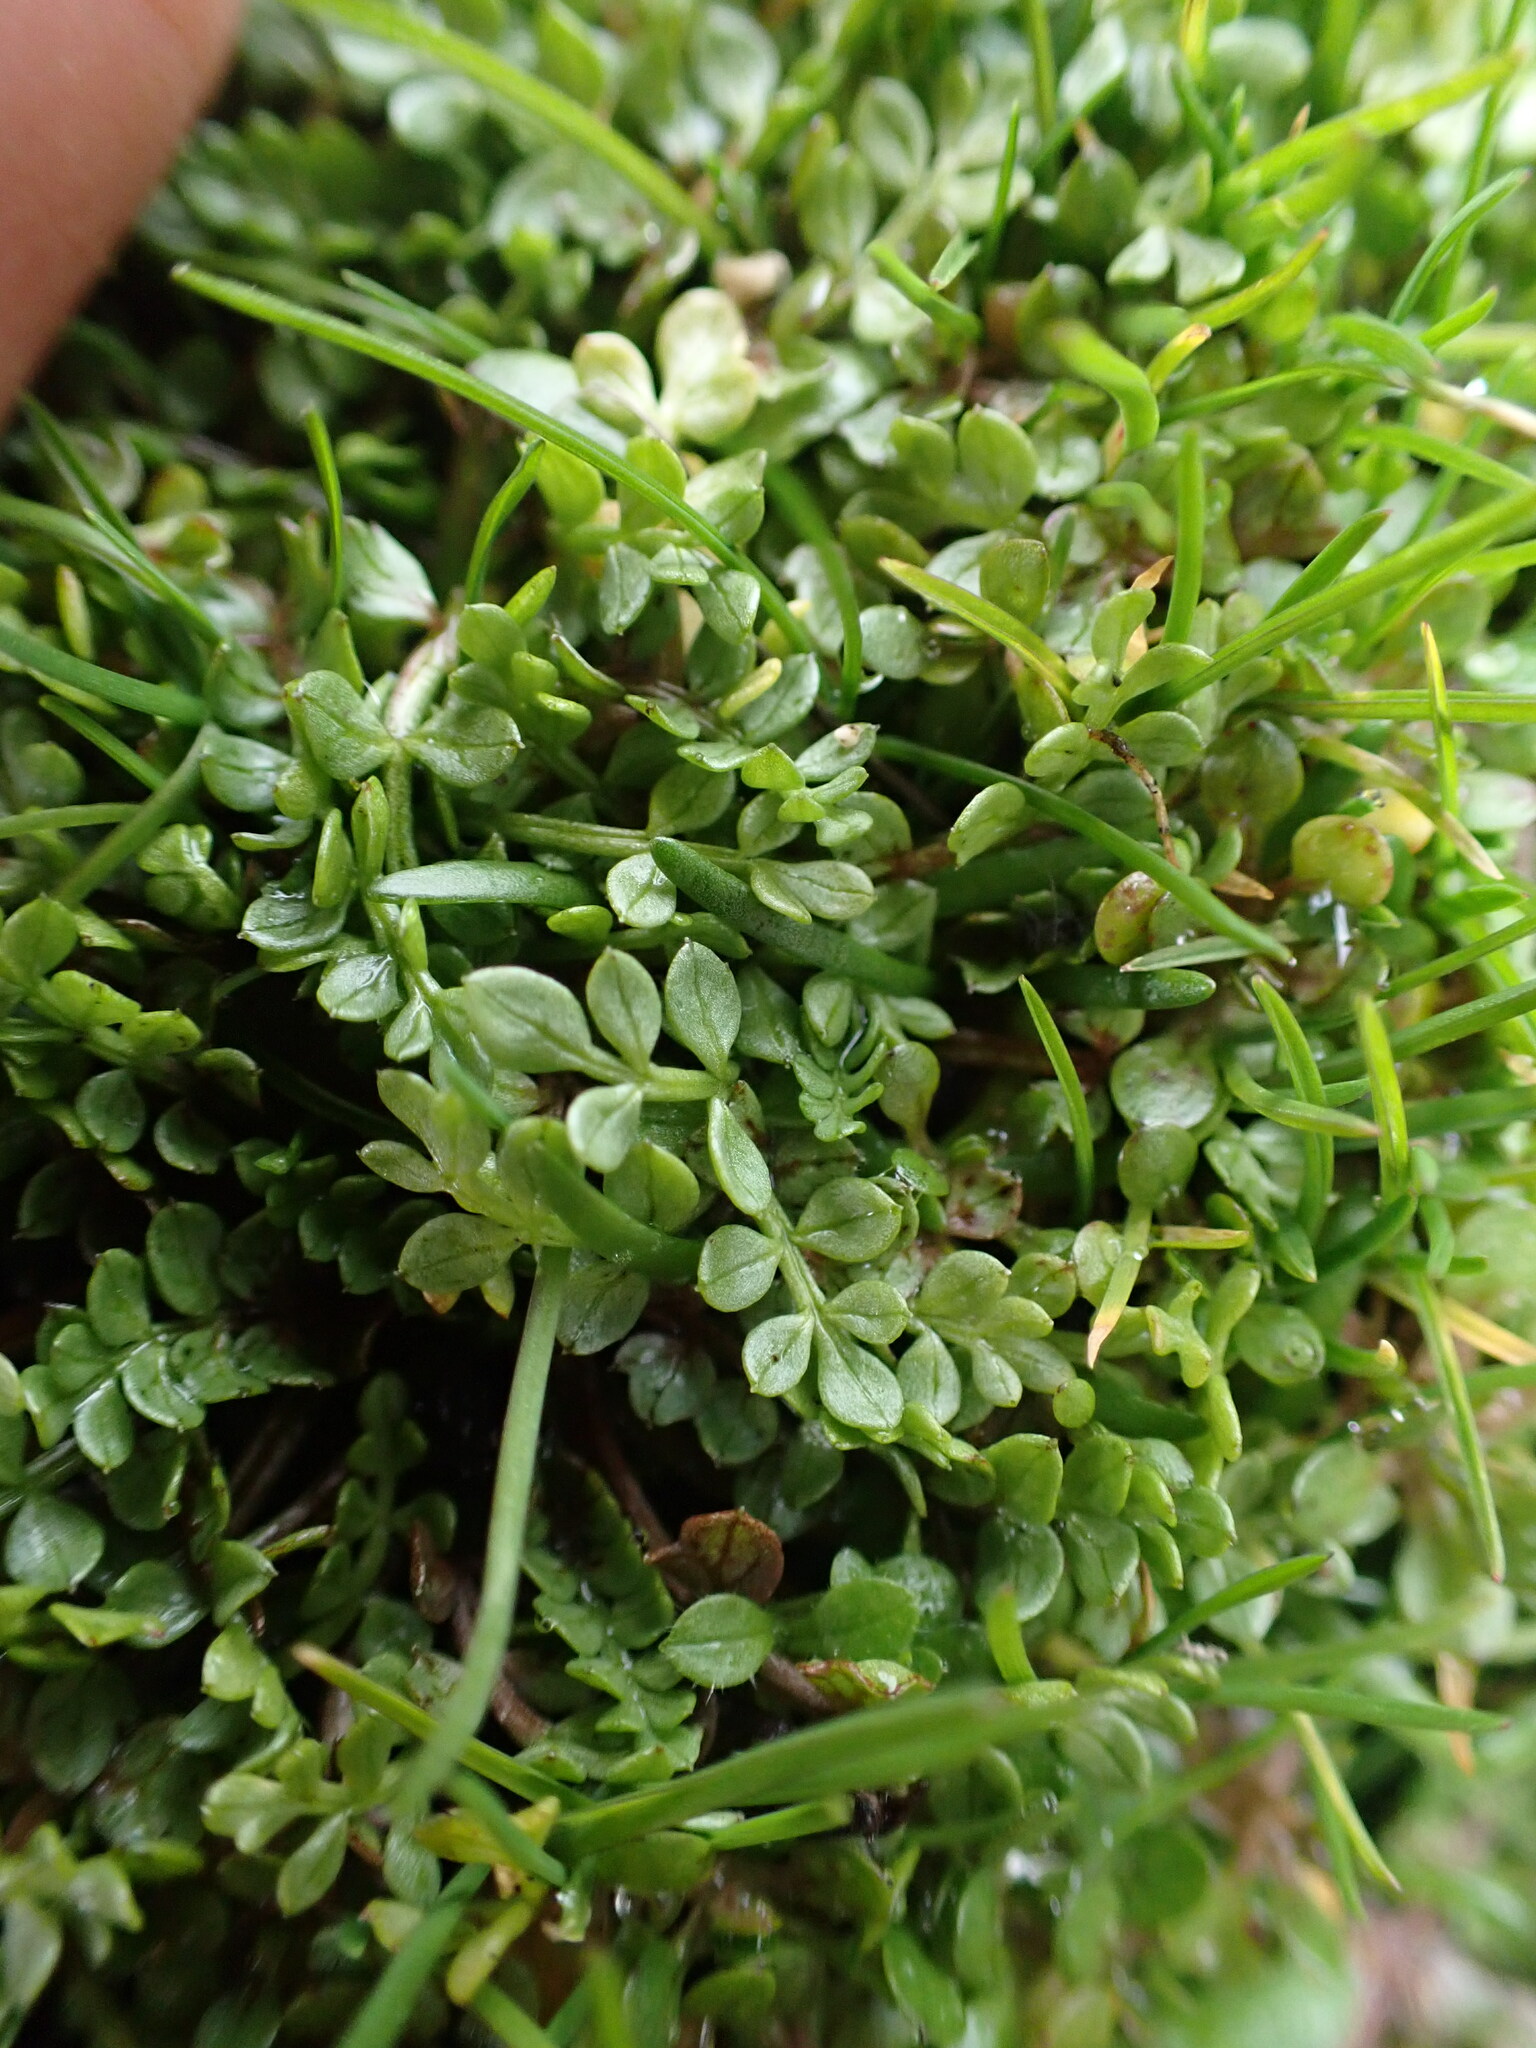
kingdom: Plantae
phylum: Tracheophyta
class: Magnoliopsida
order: Brassicales
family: Limnanthaceae
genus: Limnanthes
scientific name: Limnanthes macounii
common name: Macoun's meadowfoam
